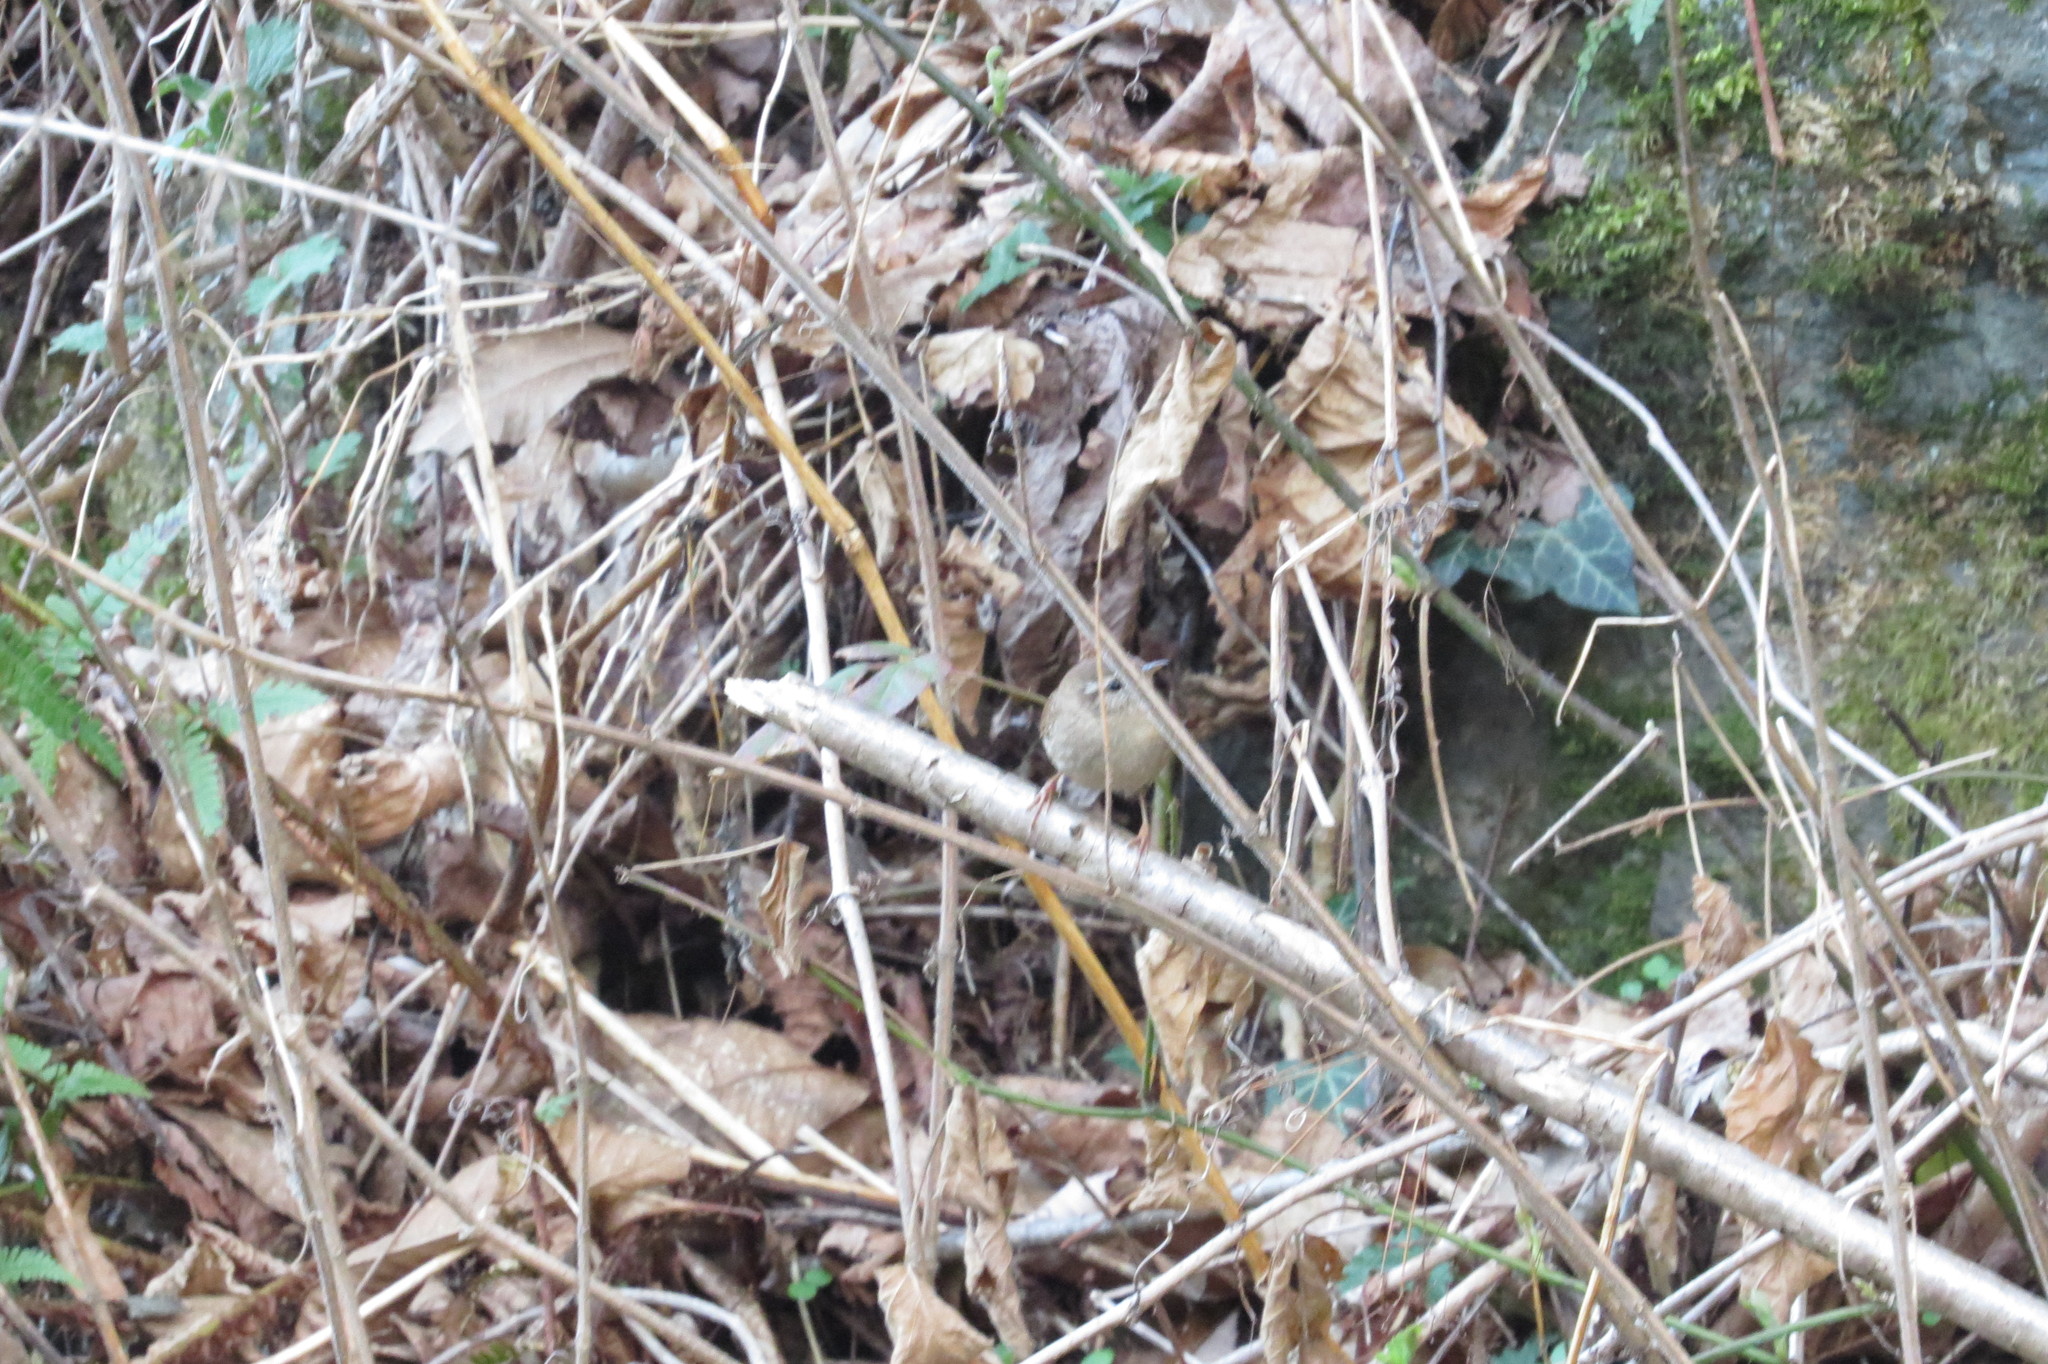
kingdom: Animalia
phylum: Chordata
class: Aves
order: Passeriformes
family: Troglodytidae
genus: Troglodytes
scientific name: Troglodytes troglodytes
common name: Eurasian wren
